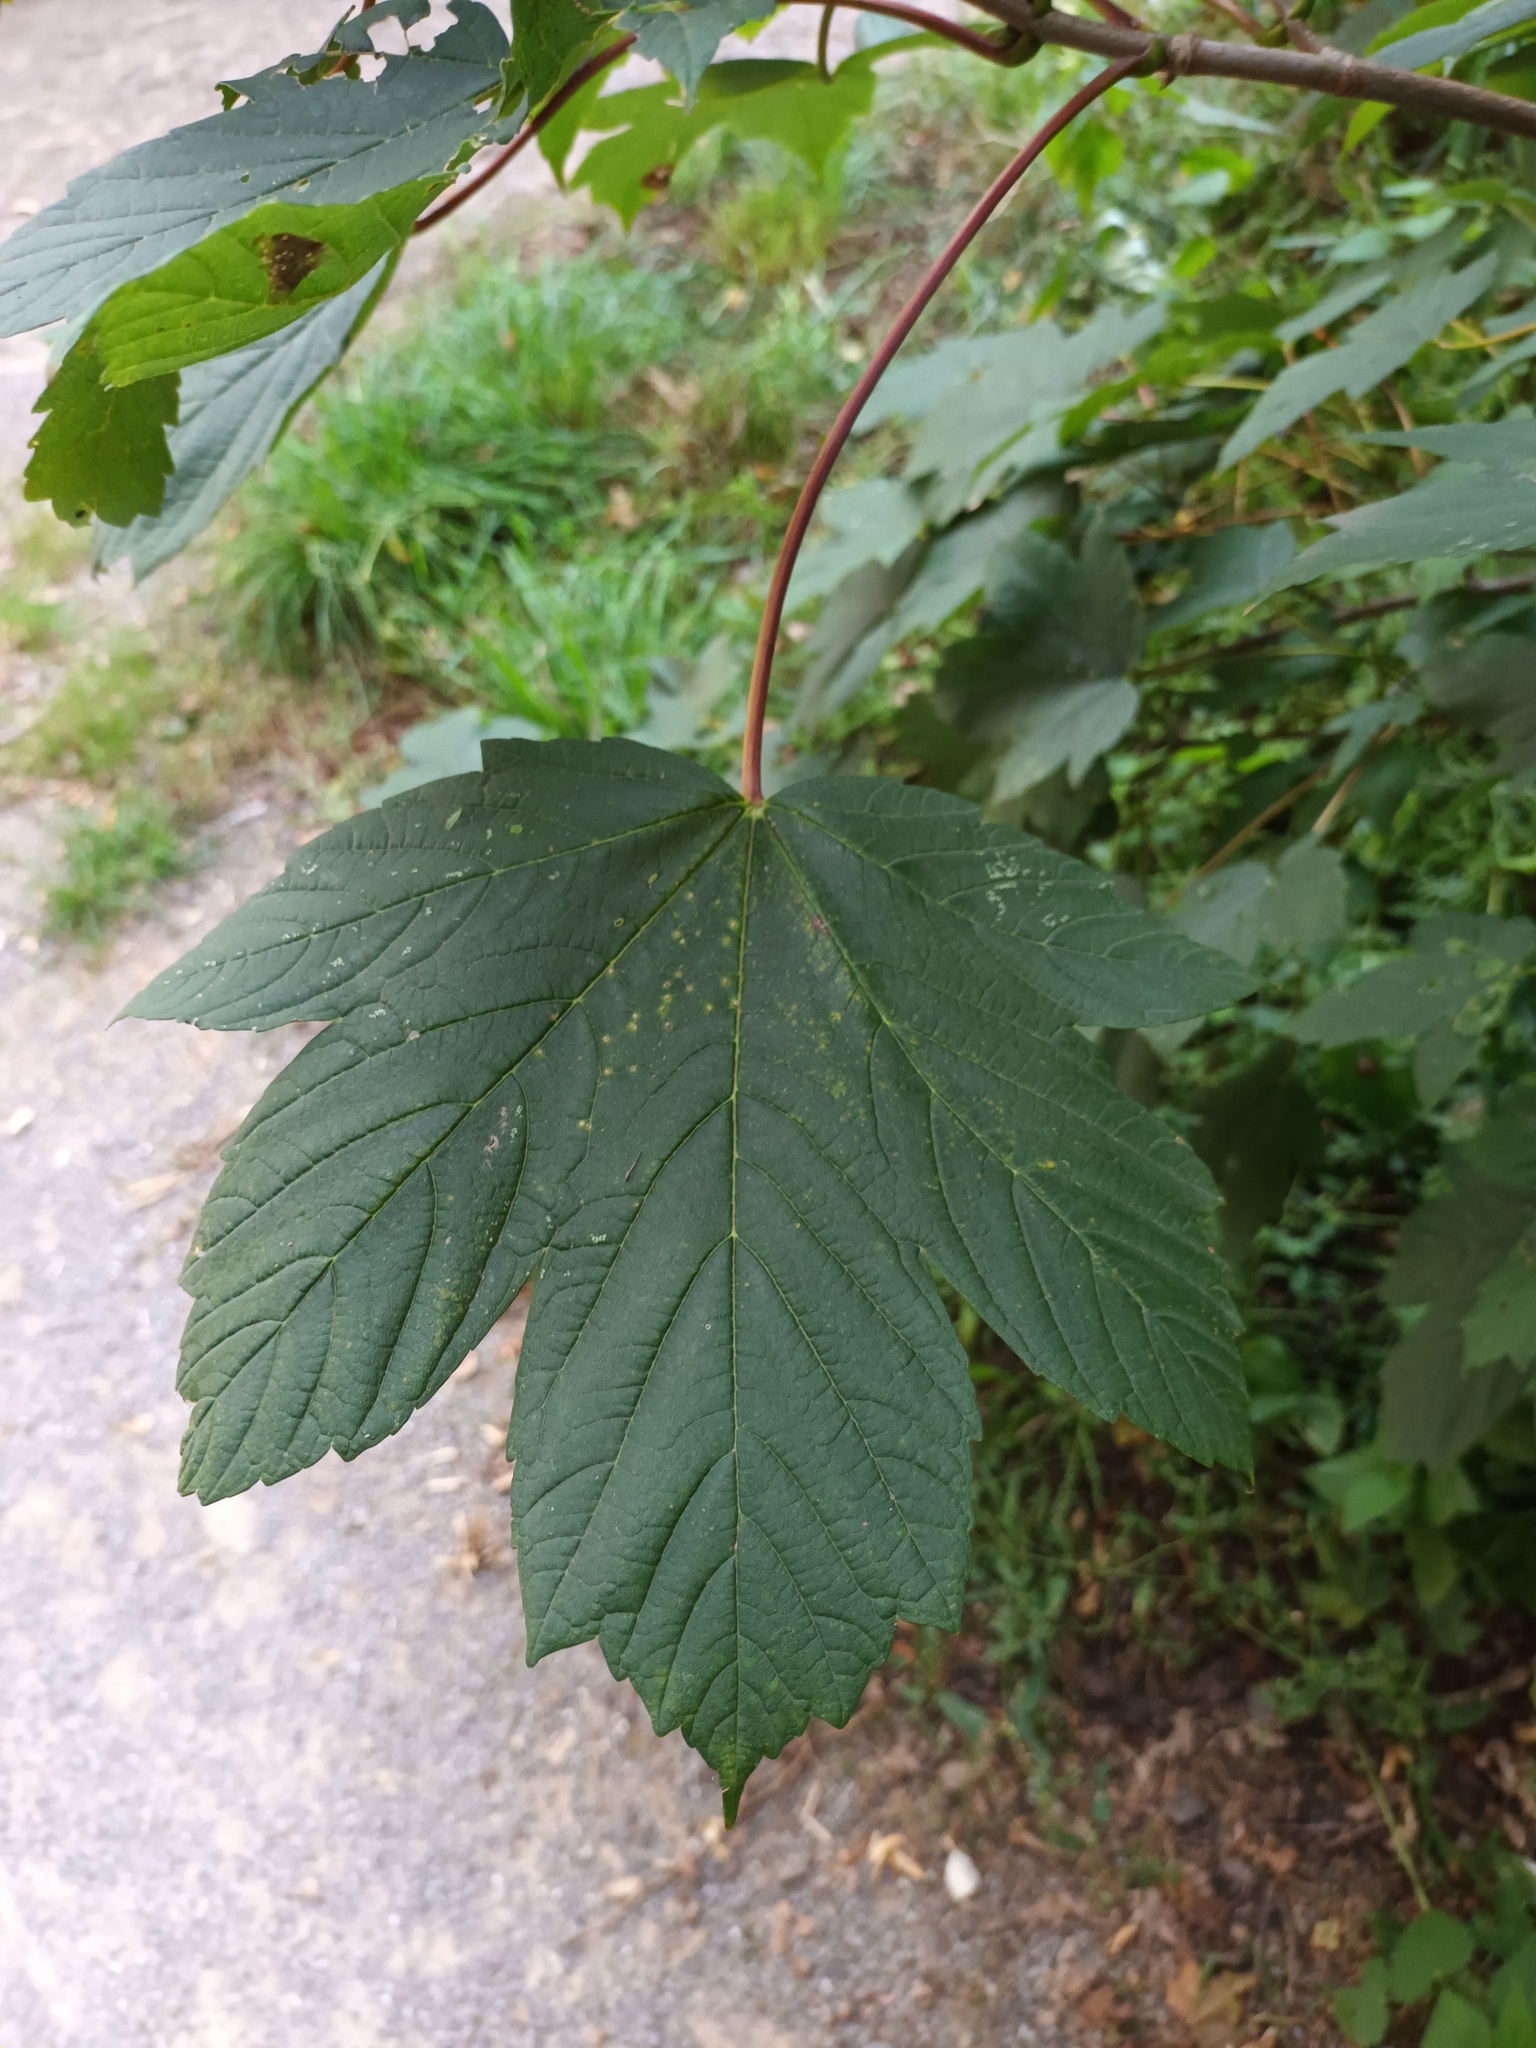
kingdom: Plantae
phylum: Tracheophyta
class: Magnoliopsida
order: Sapindales
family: Sapindaceae
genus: Acer
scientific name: Acer pseudoplatanus
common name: Sycamore
